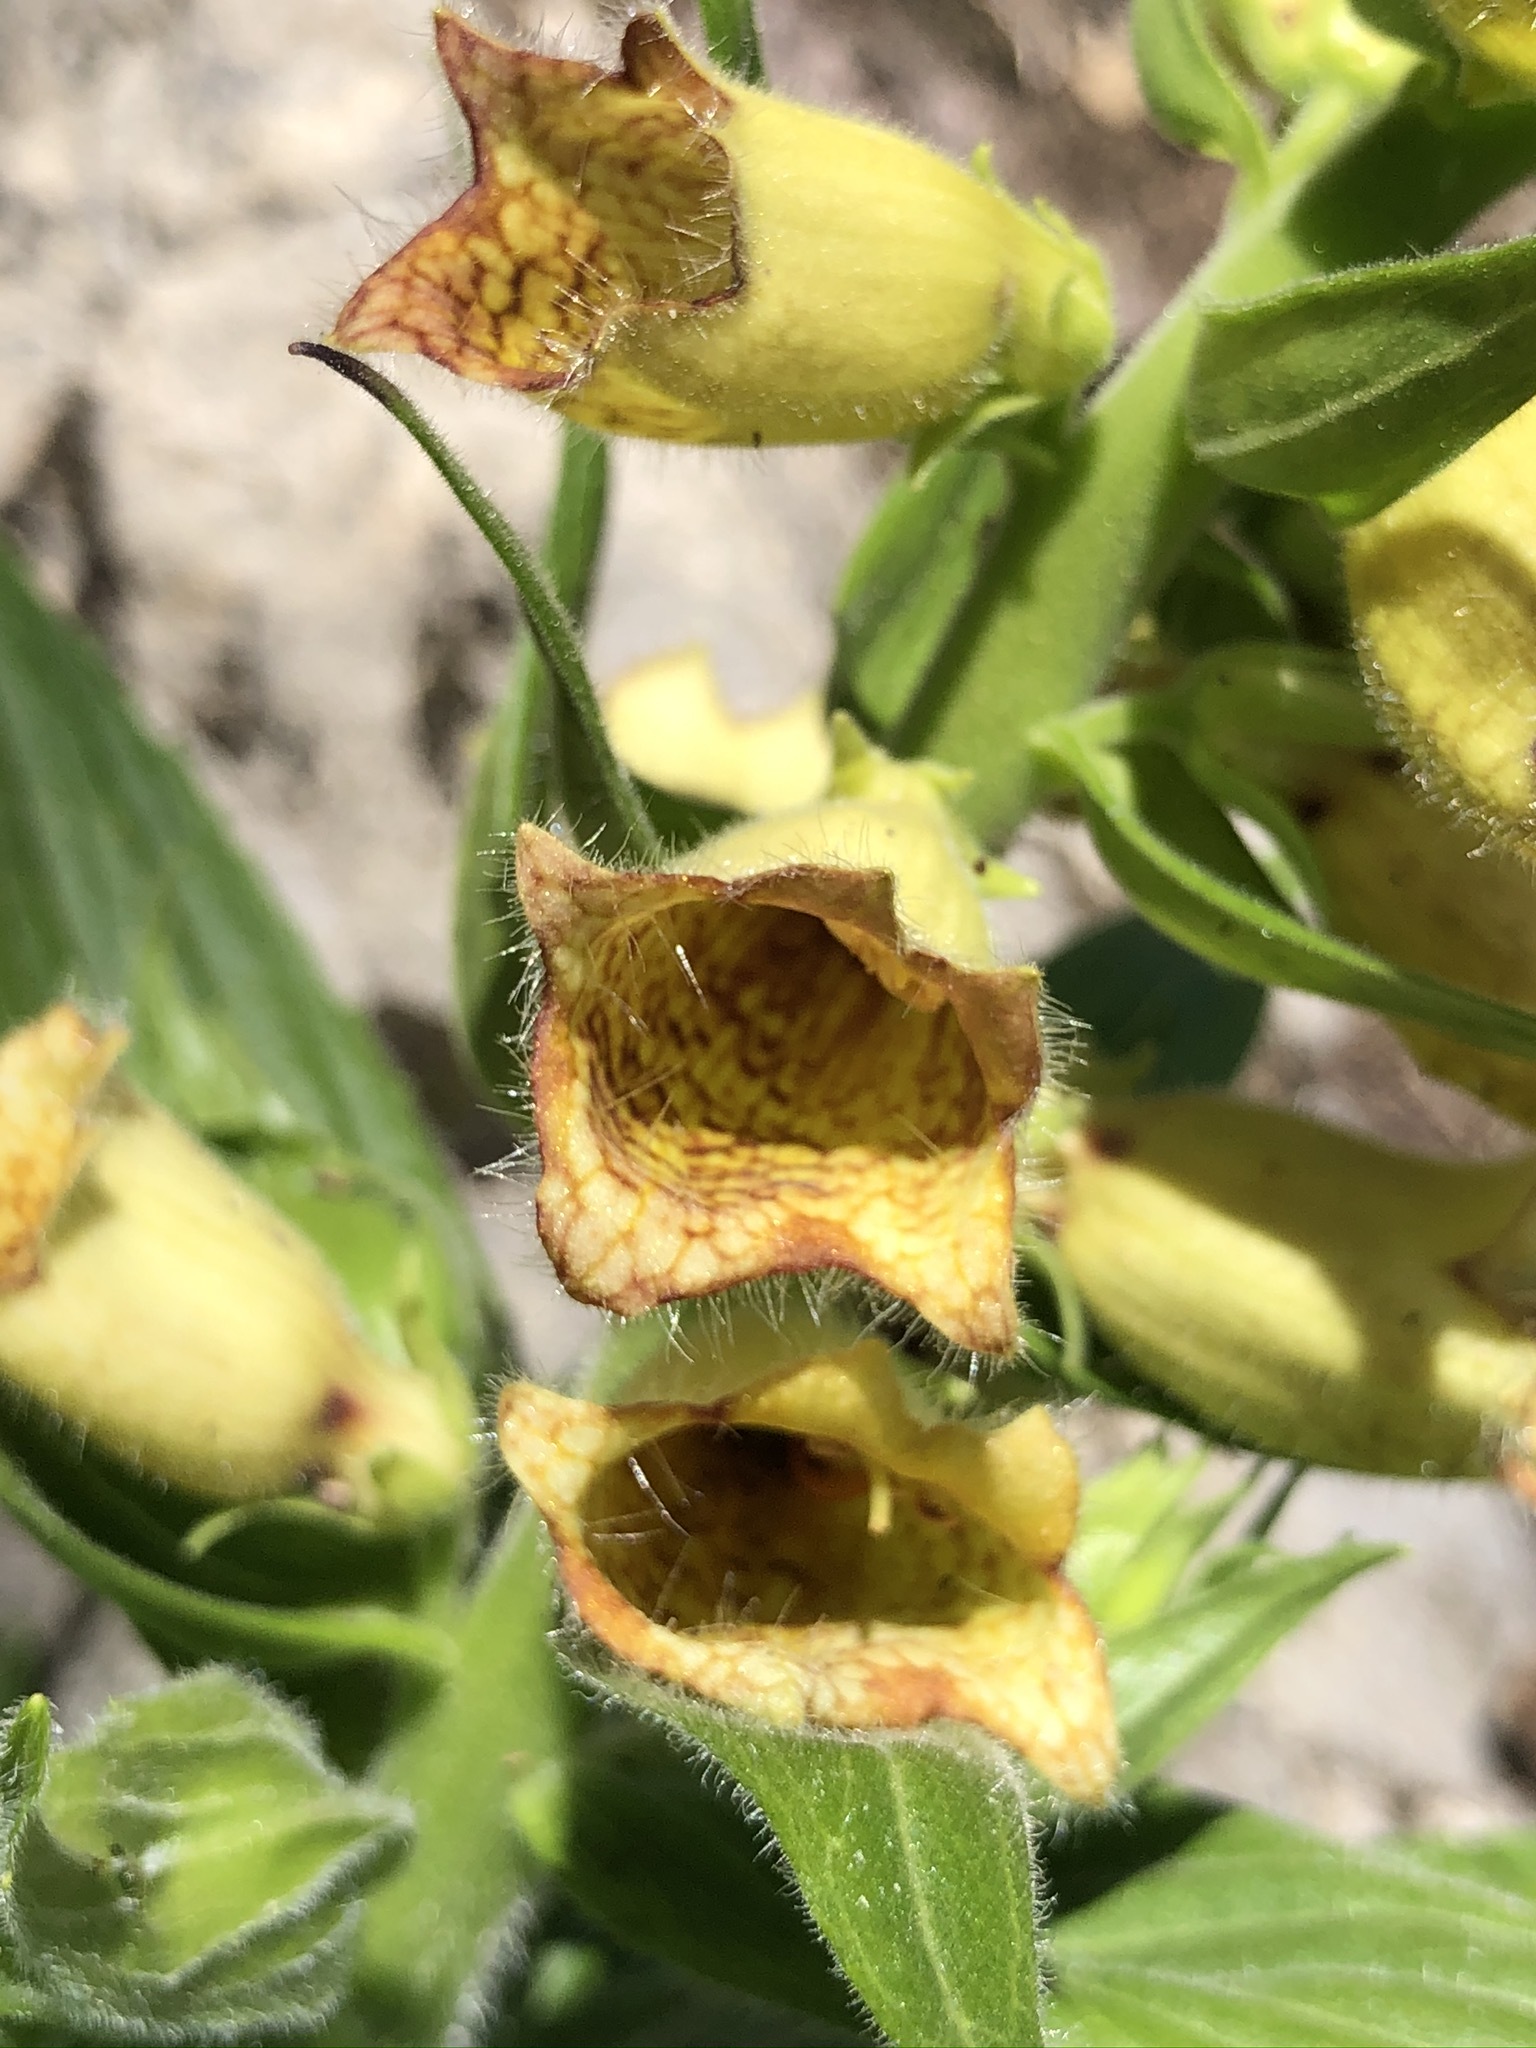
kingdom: Plantae
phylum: Tracheophyta
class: Magnoliopsida
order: Lamiales
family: Plantaginaceae
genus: Digitalis
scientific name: Digitalis grandiflora
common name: Yellow foxglove
